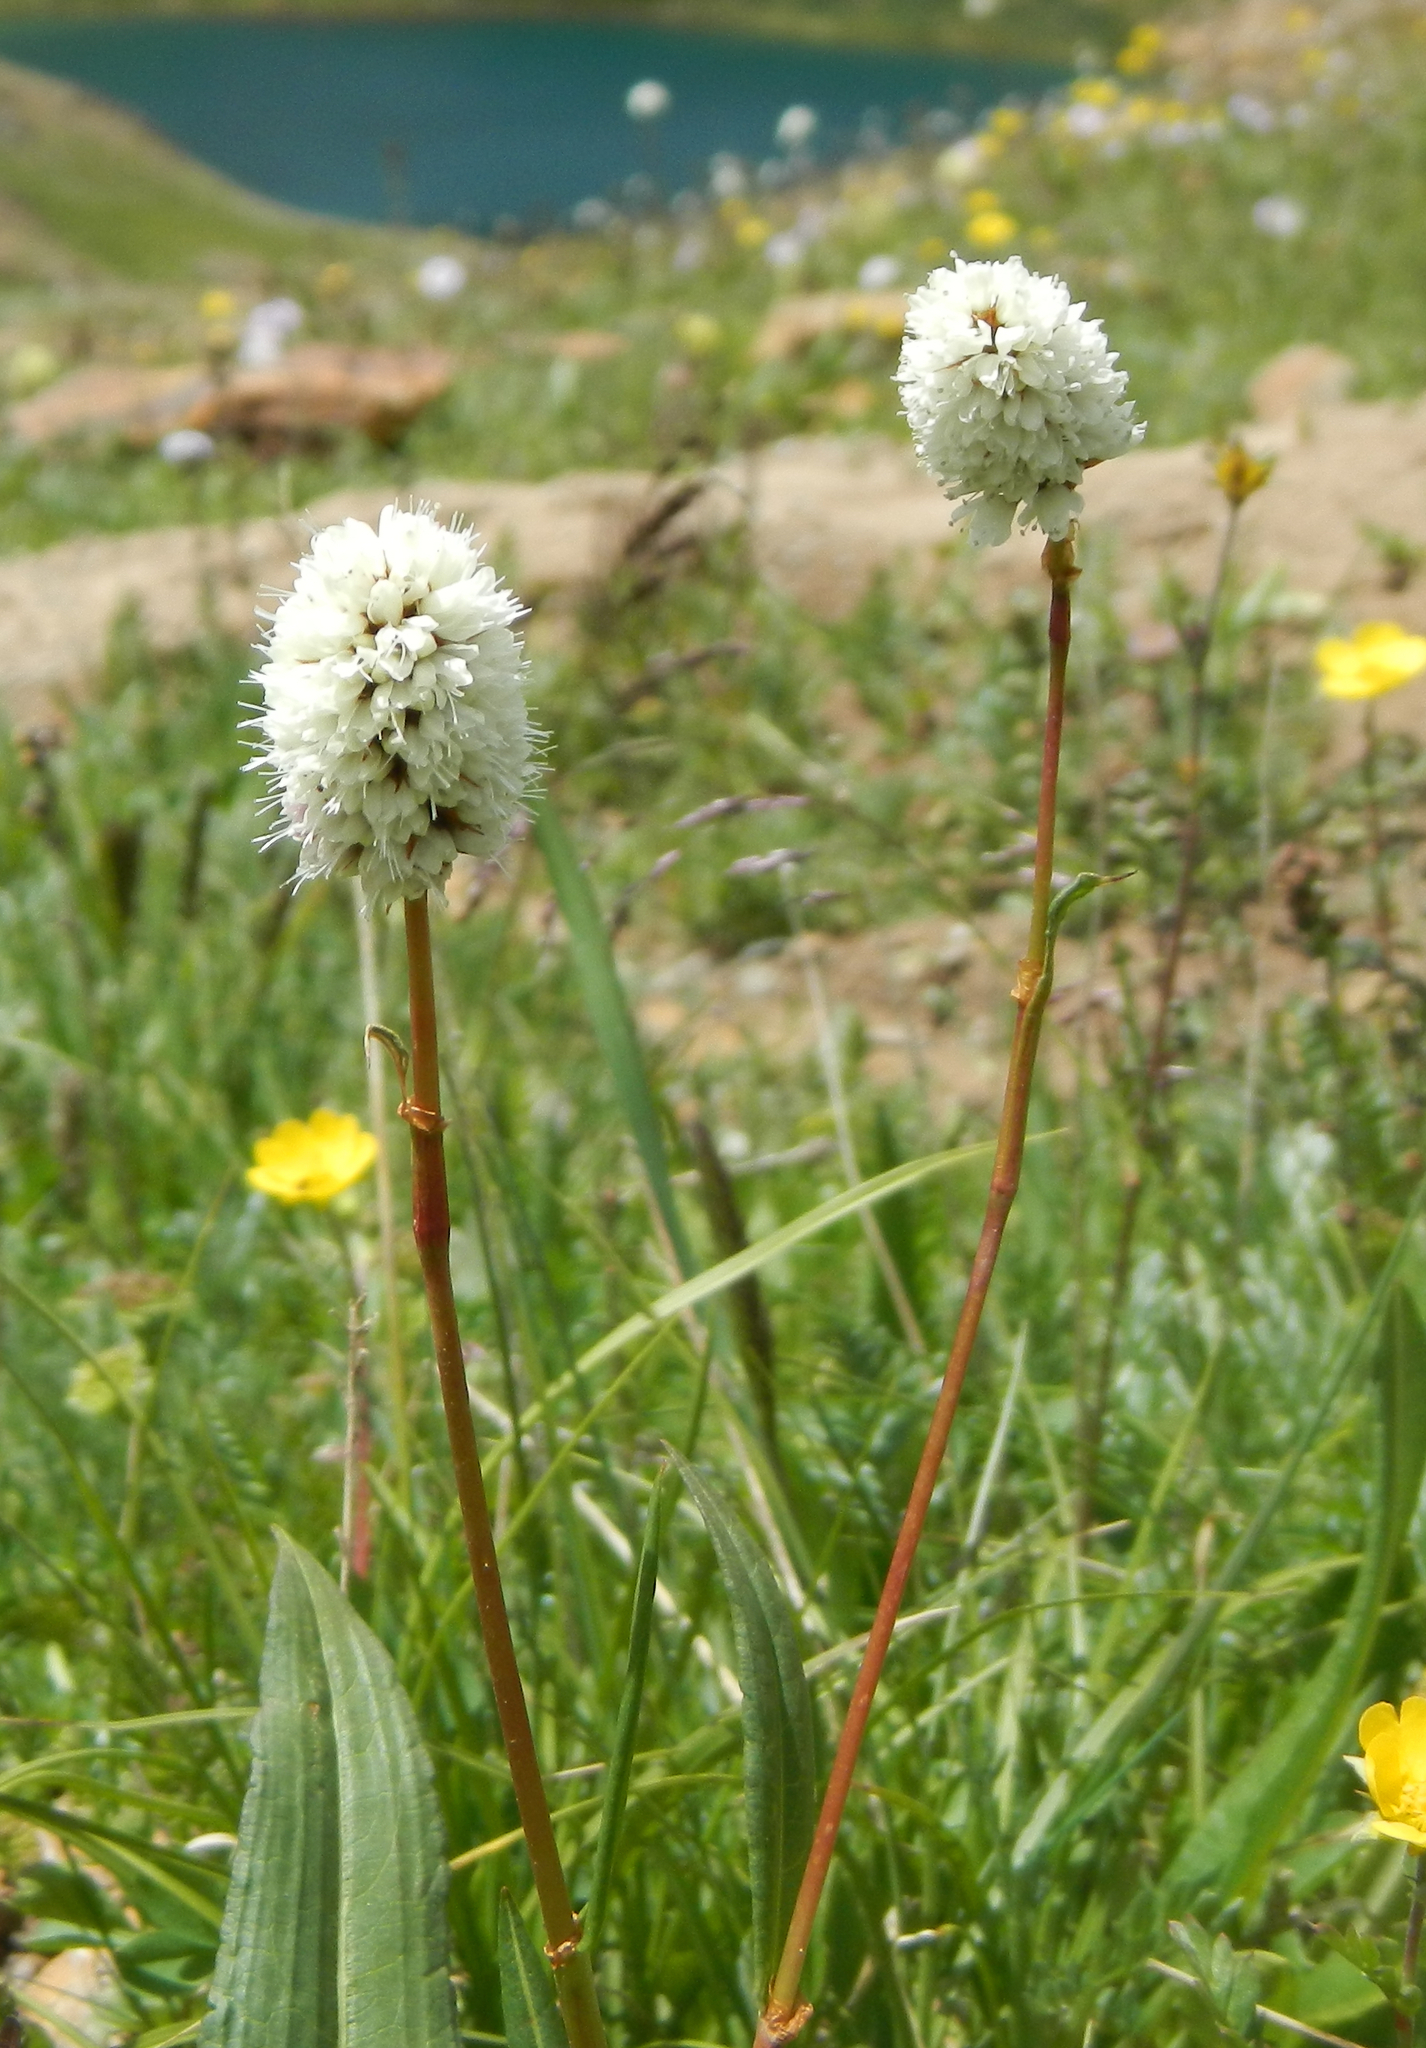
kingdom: Plantae
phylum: Tracheophyta
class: Magnoliopsida
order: Caryophyllales
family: Polygonaceae
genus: Bistorta
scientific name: Bistorta bistortoides
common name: American bistort
